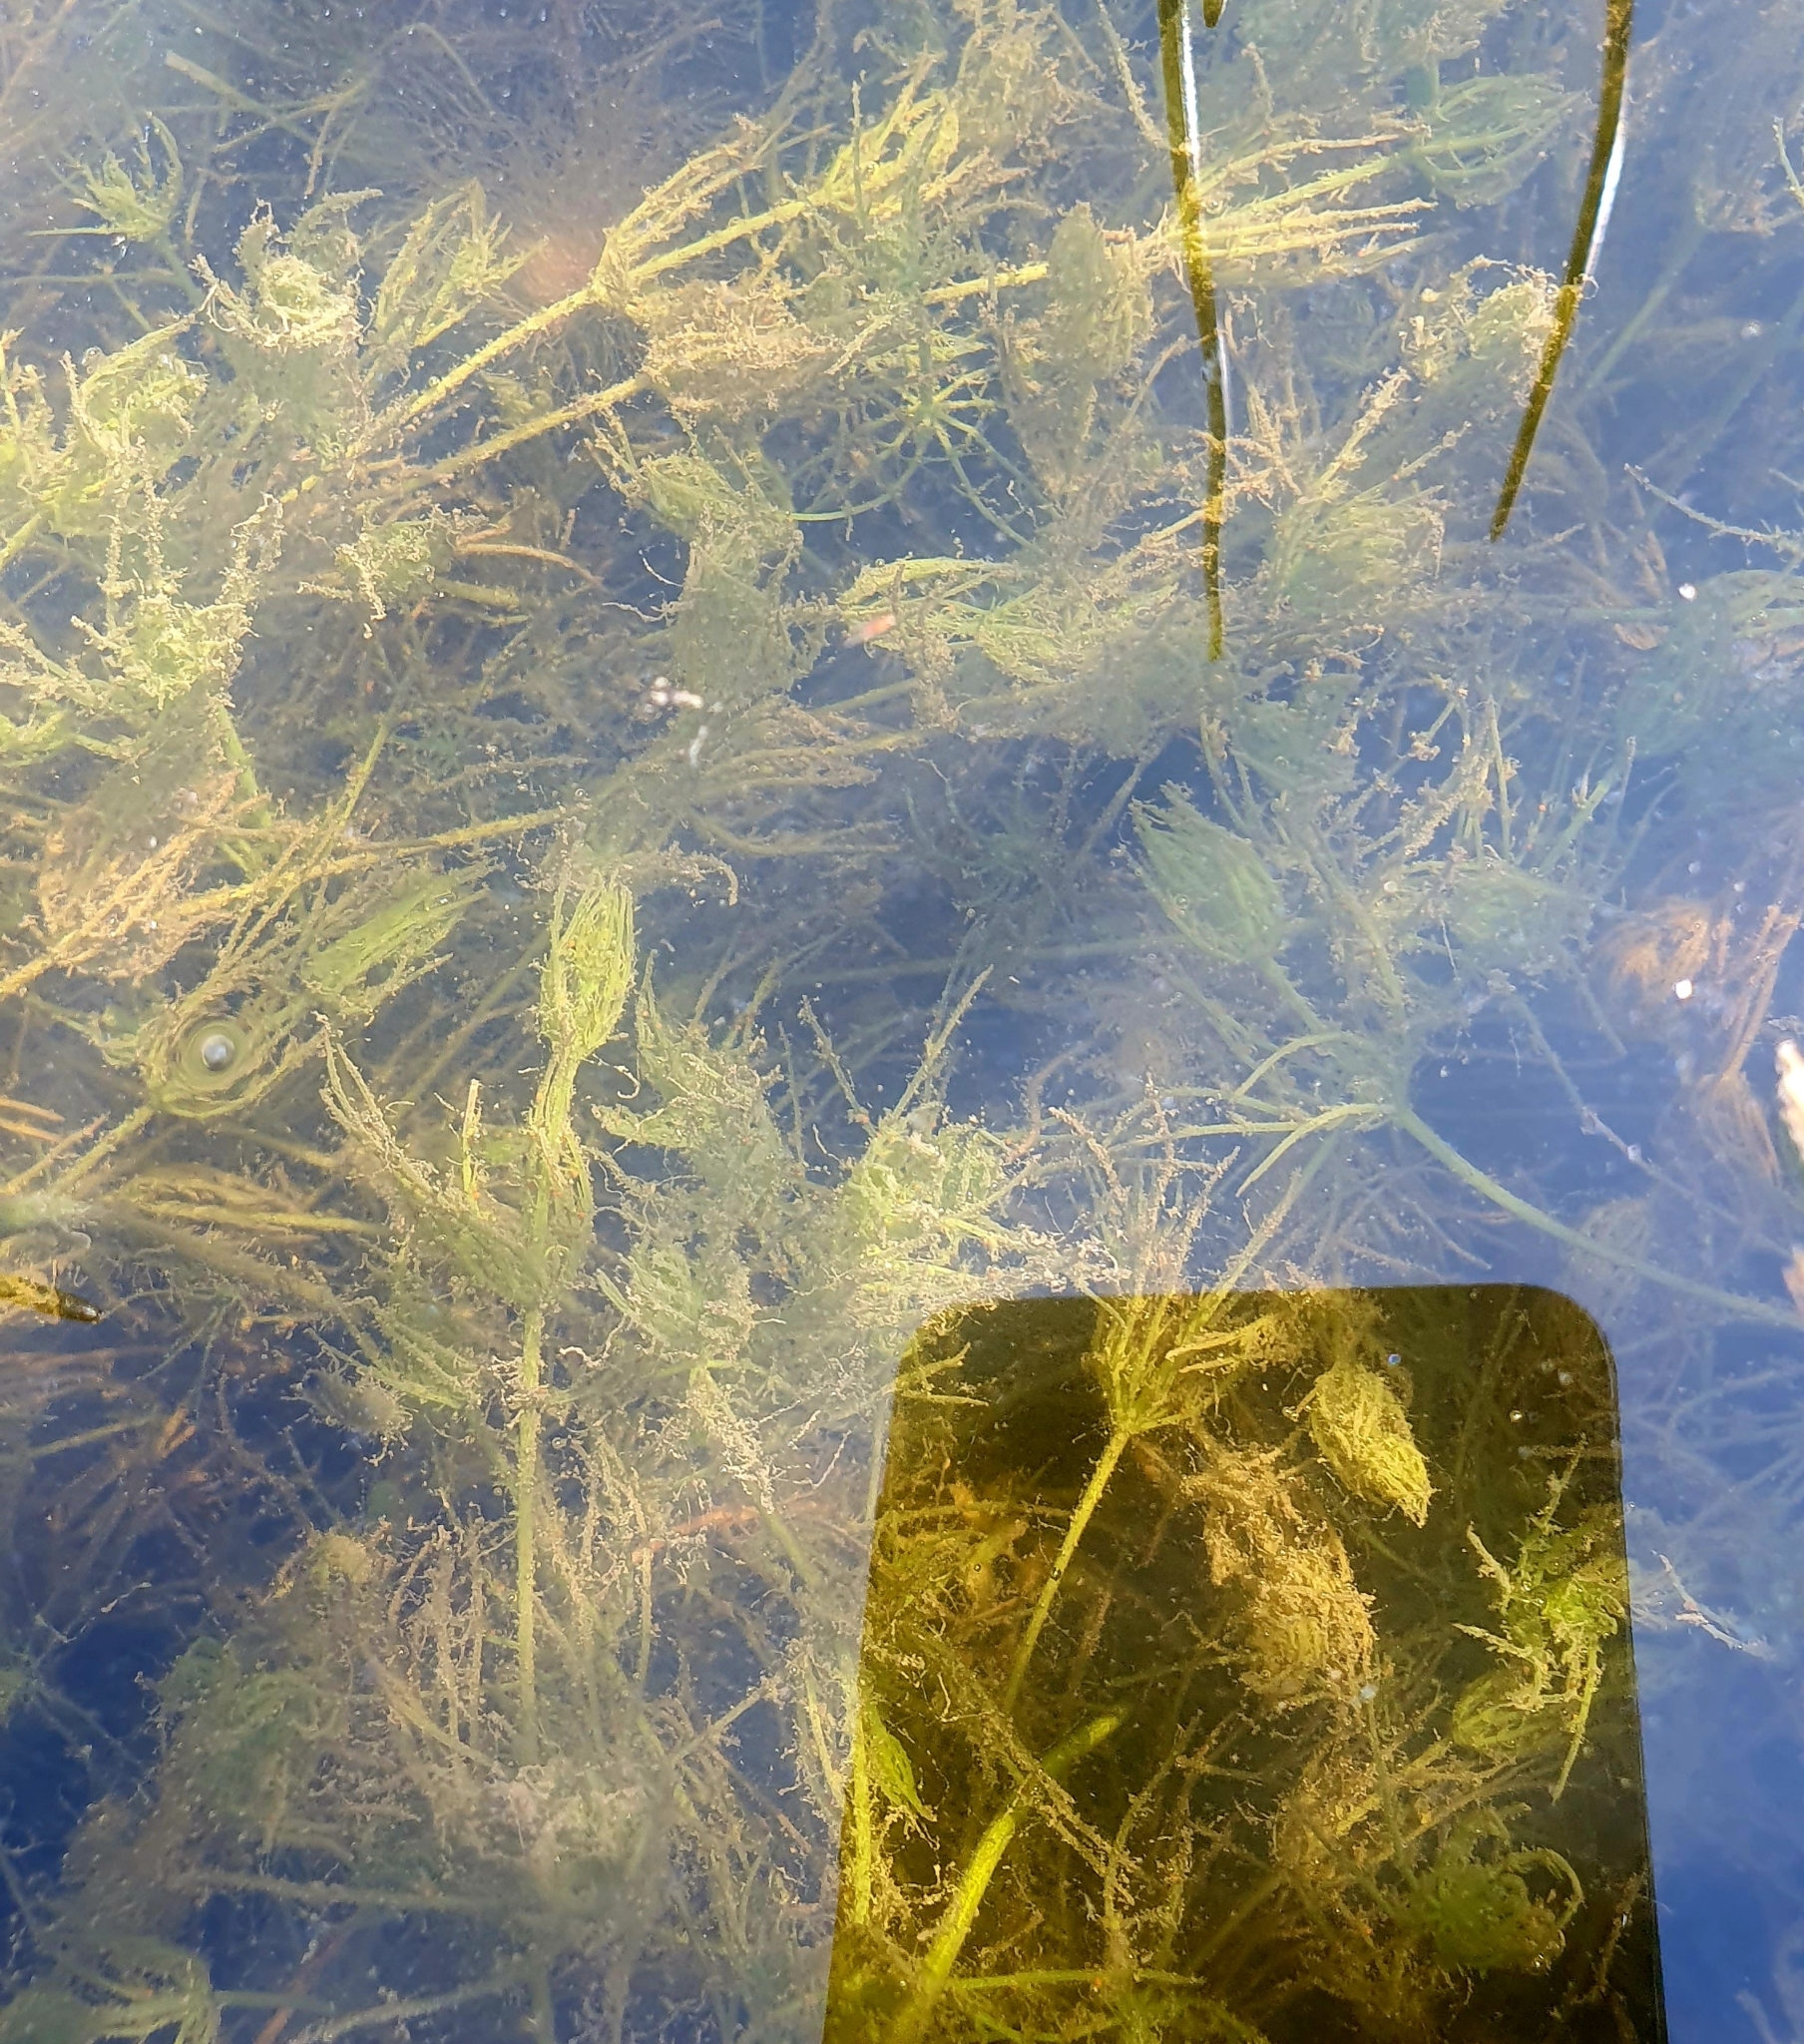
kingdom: Plantae
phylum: Charophyta
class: Charophyceae
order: Charales
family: Characeae
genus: Chara
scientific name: Chara vulgaris
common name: Common stonewort
